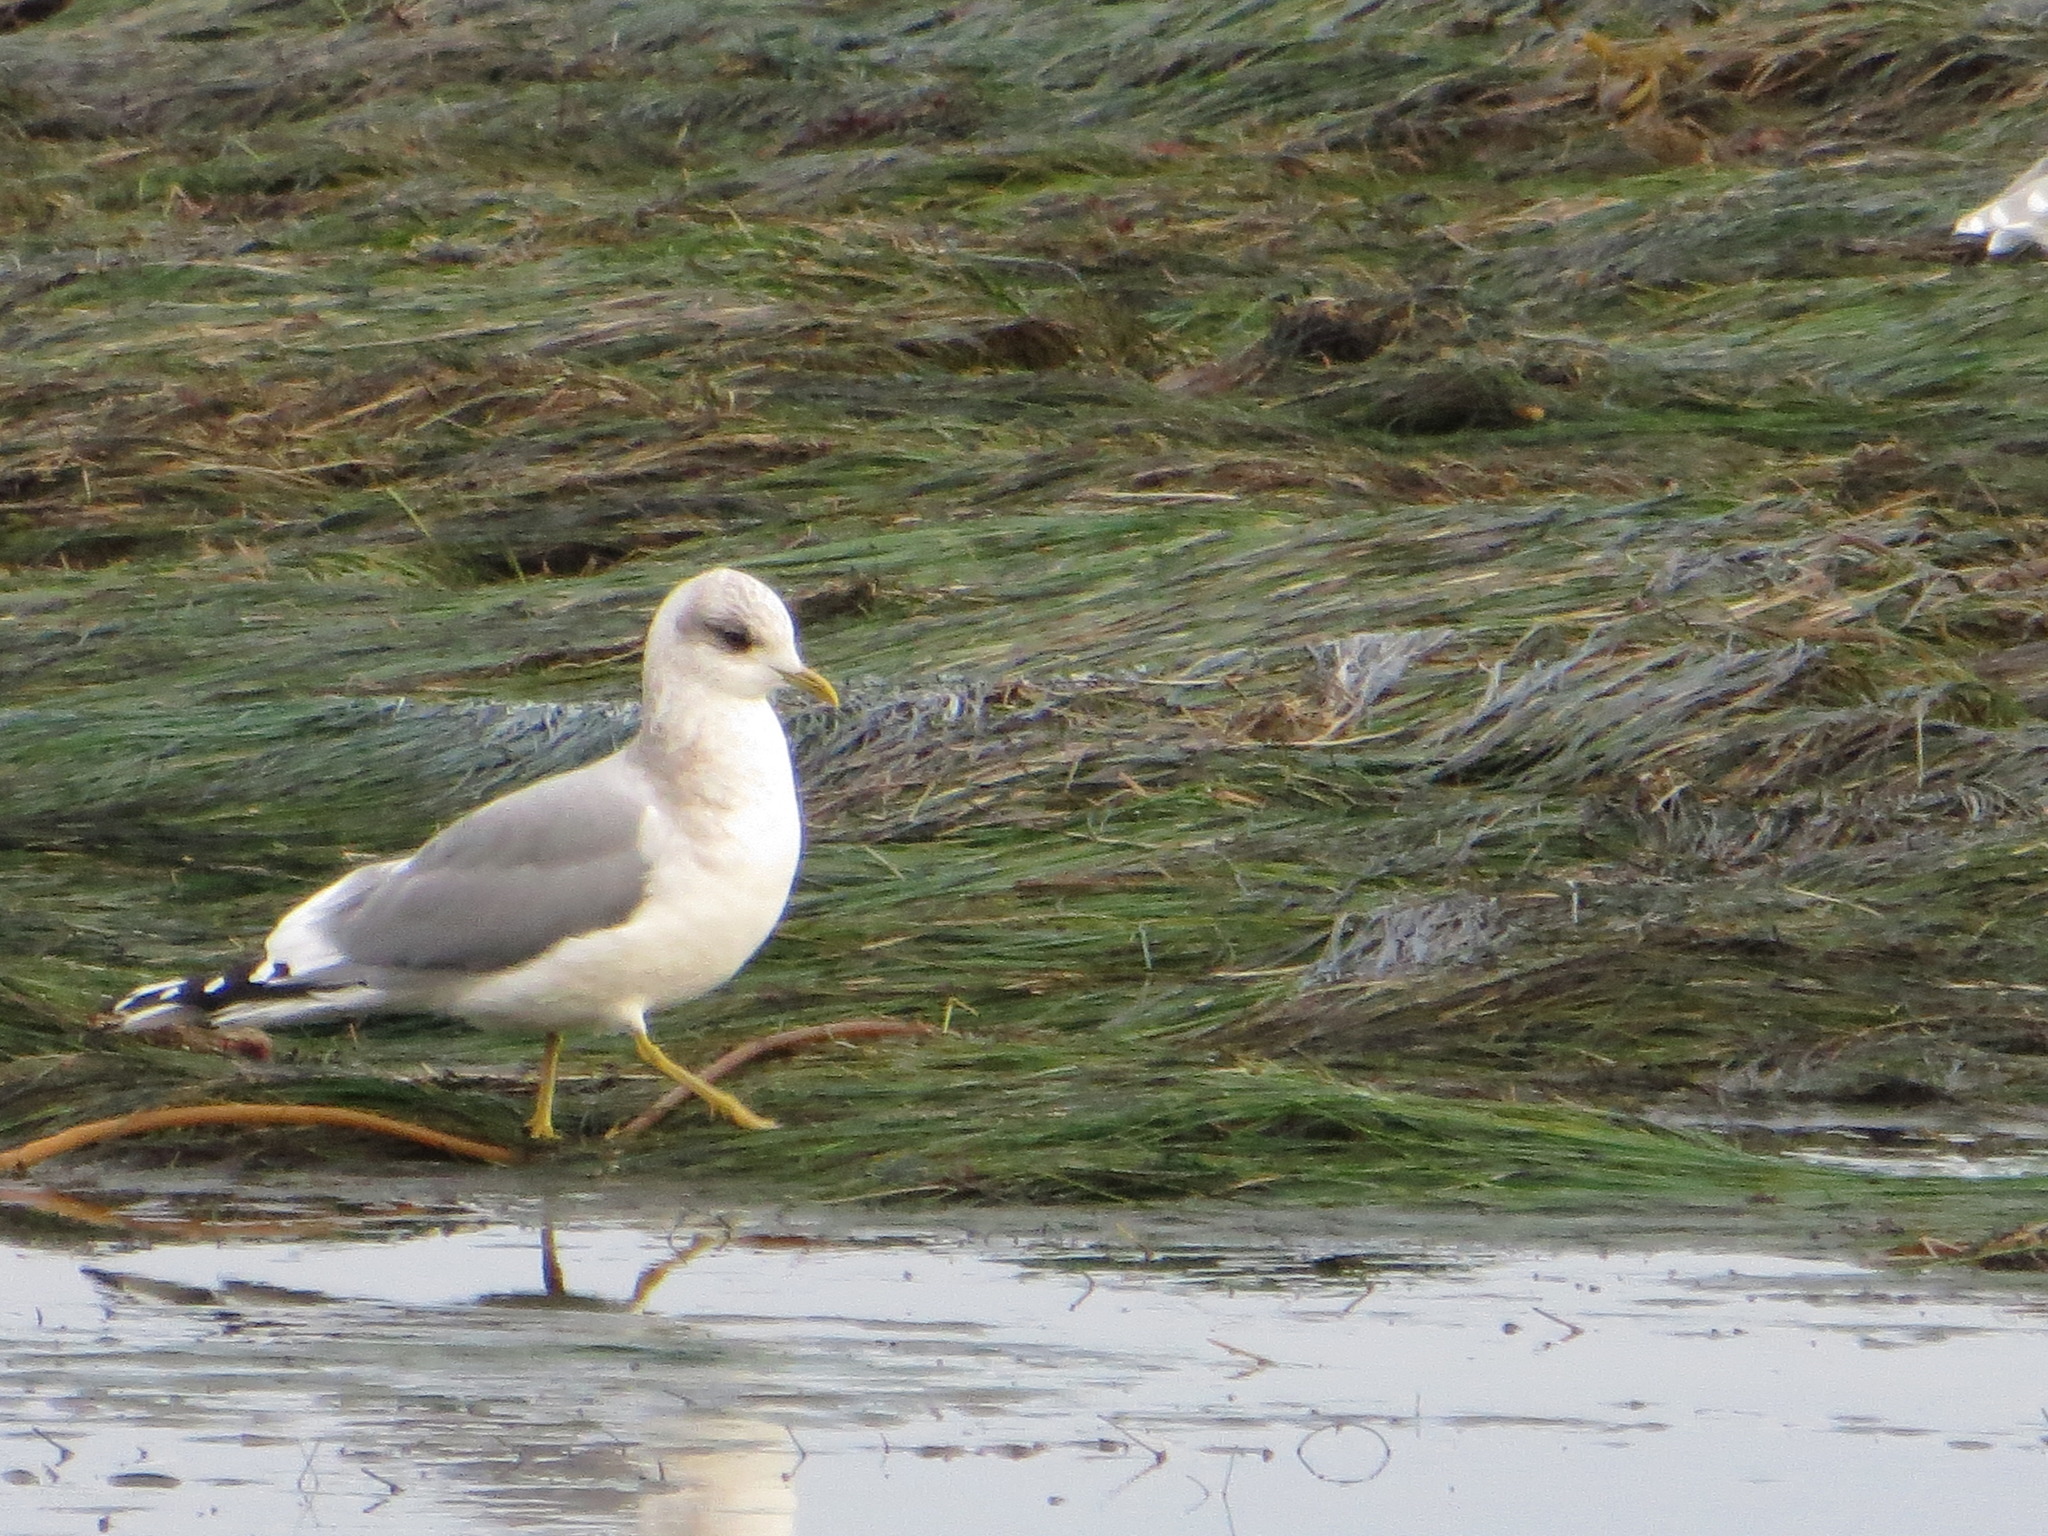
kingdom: Animalia
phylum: Chordata
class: Aves
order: Charadriiformes
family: Laridae
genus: Larus
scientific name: Larus brachyrhynchus
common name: Short-billed gull
